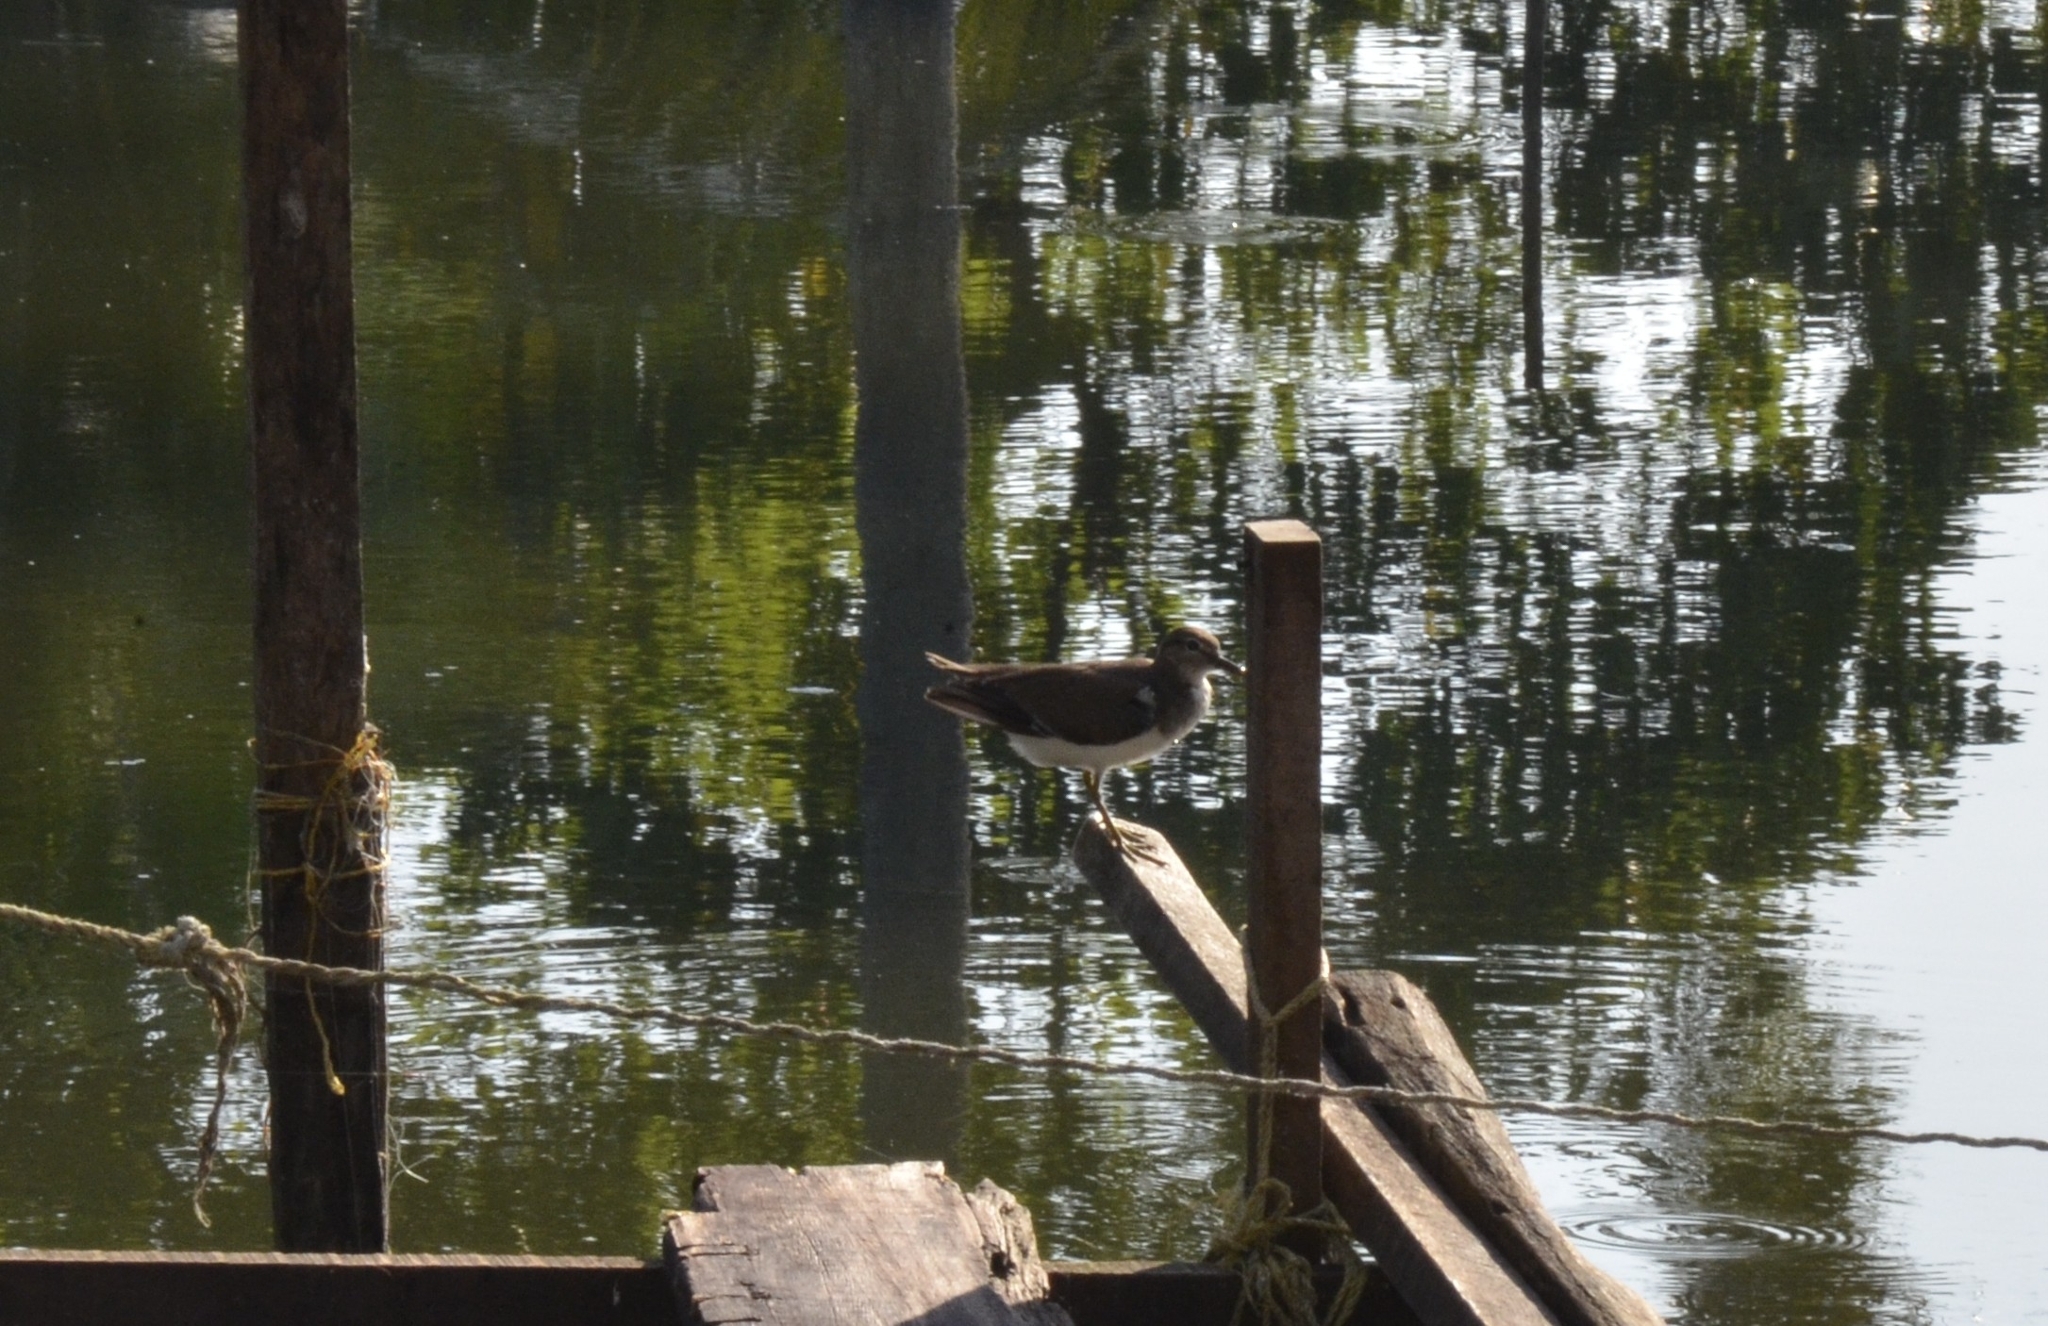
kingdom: Animalia
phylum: Chordata
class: Aves
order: Charadriiformes
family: Scolopacidae
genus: Actitis
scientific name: Actitis hypoleucos
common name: Common sandpiper
